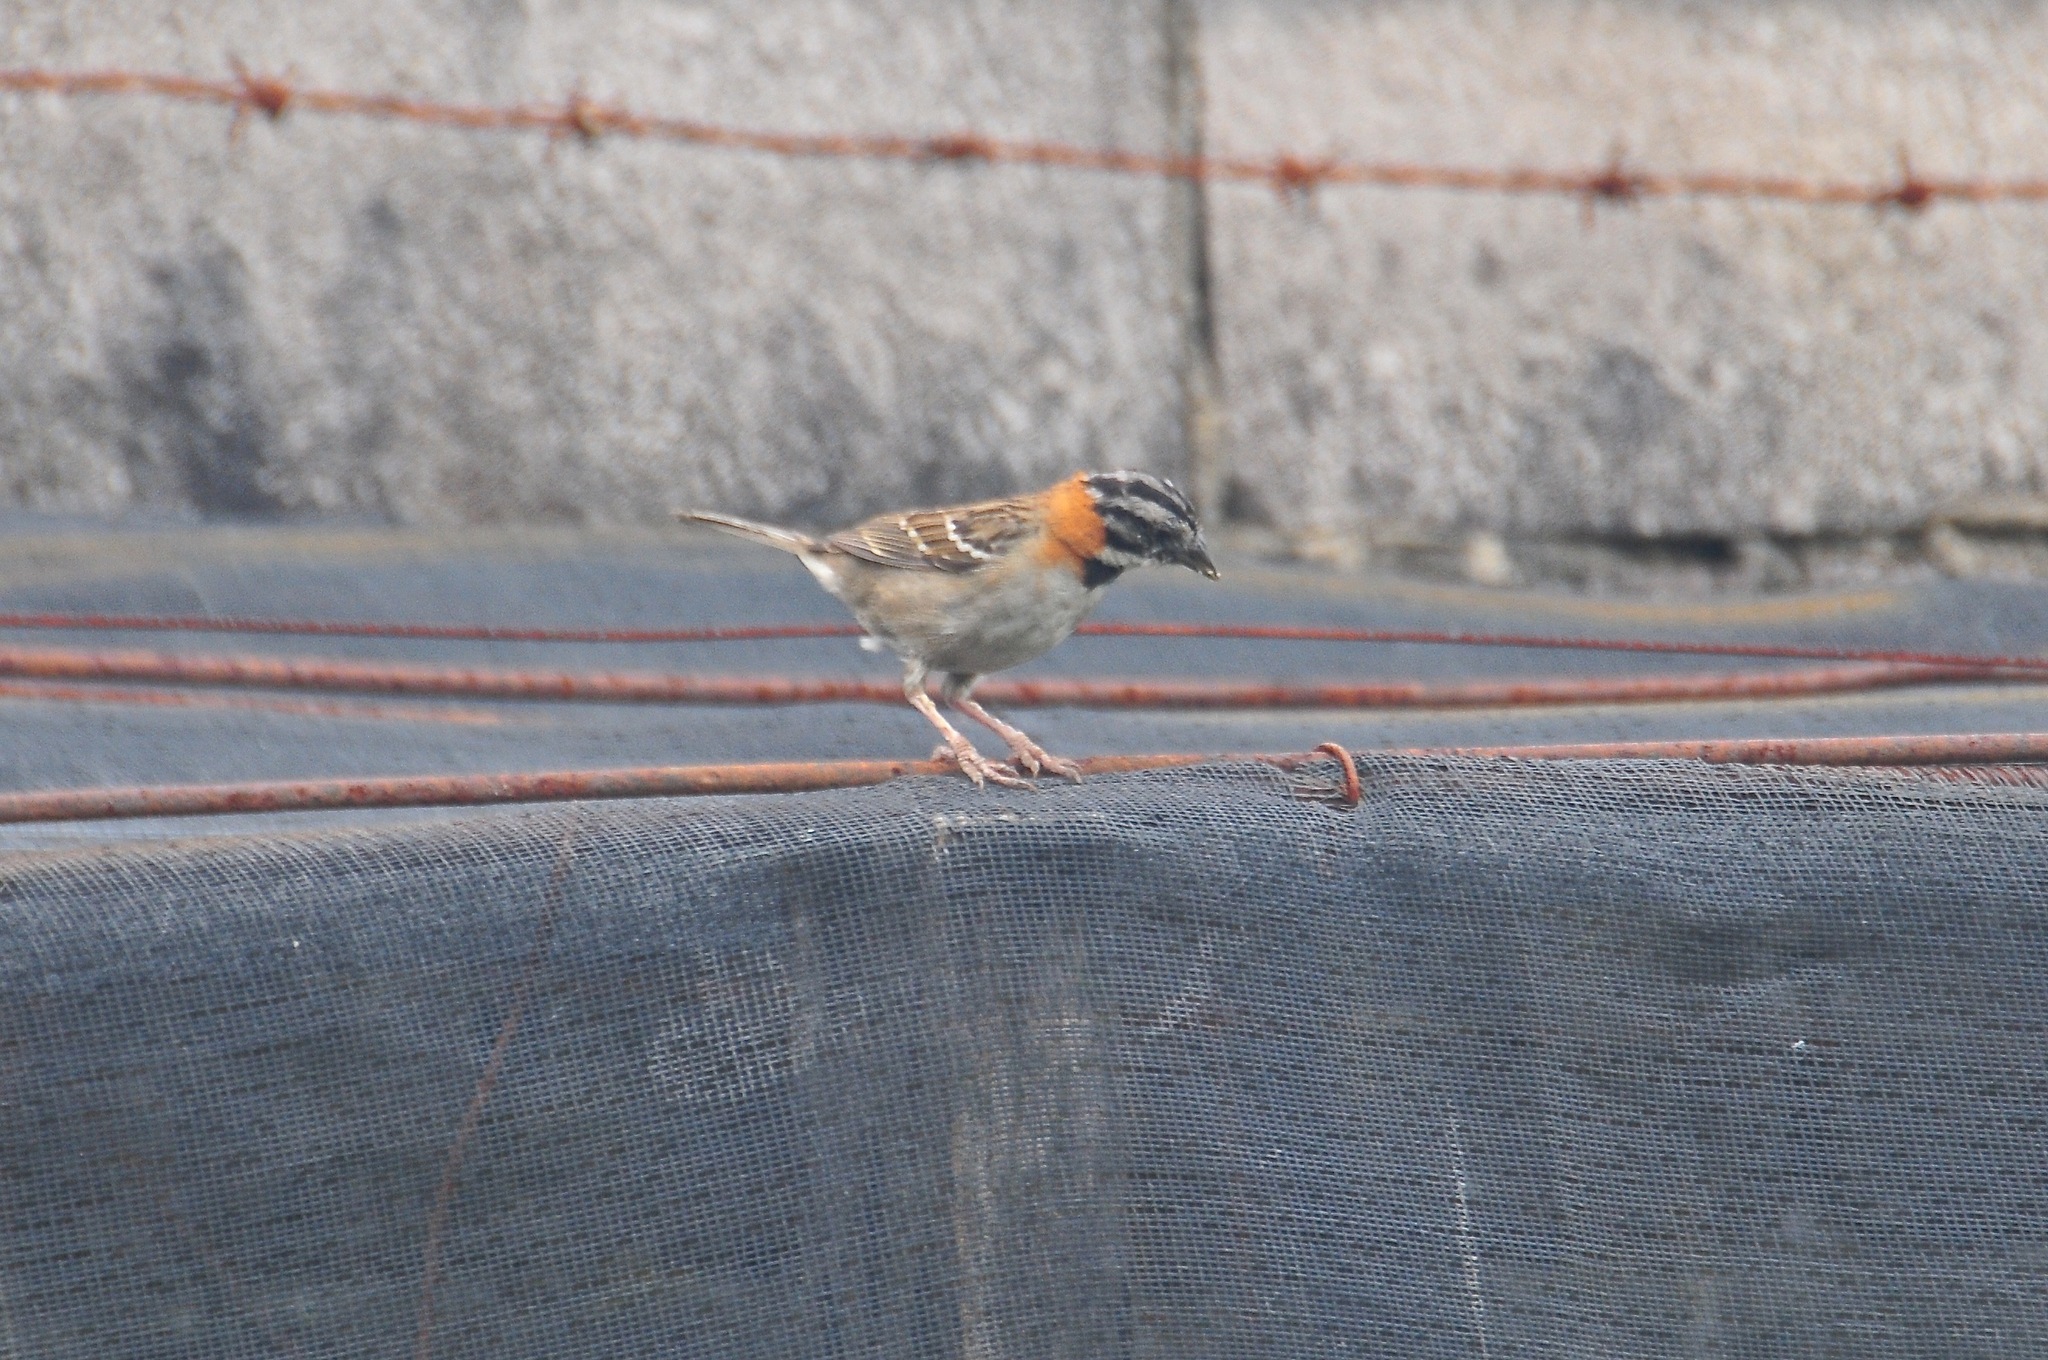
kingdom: Animalia
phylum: Chordata
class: Aves
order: Passeriformes
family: Passerellidae
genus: Zonotrichia
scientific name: Zonotrichia capensis
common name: Rufous-collared sparrow
